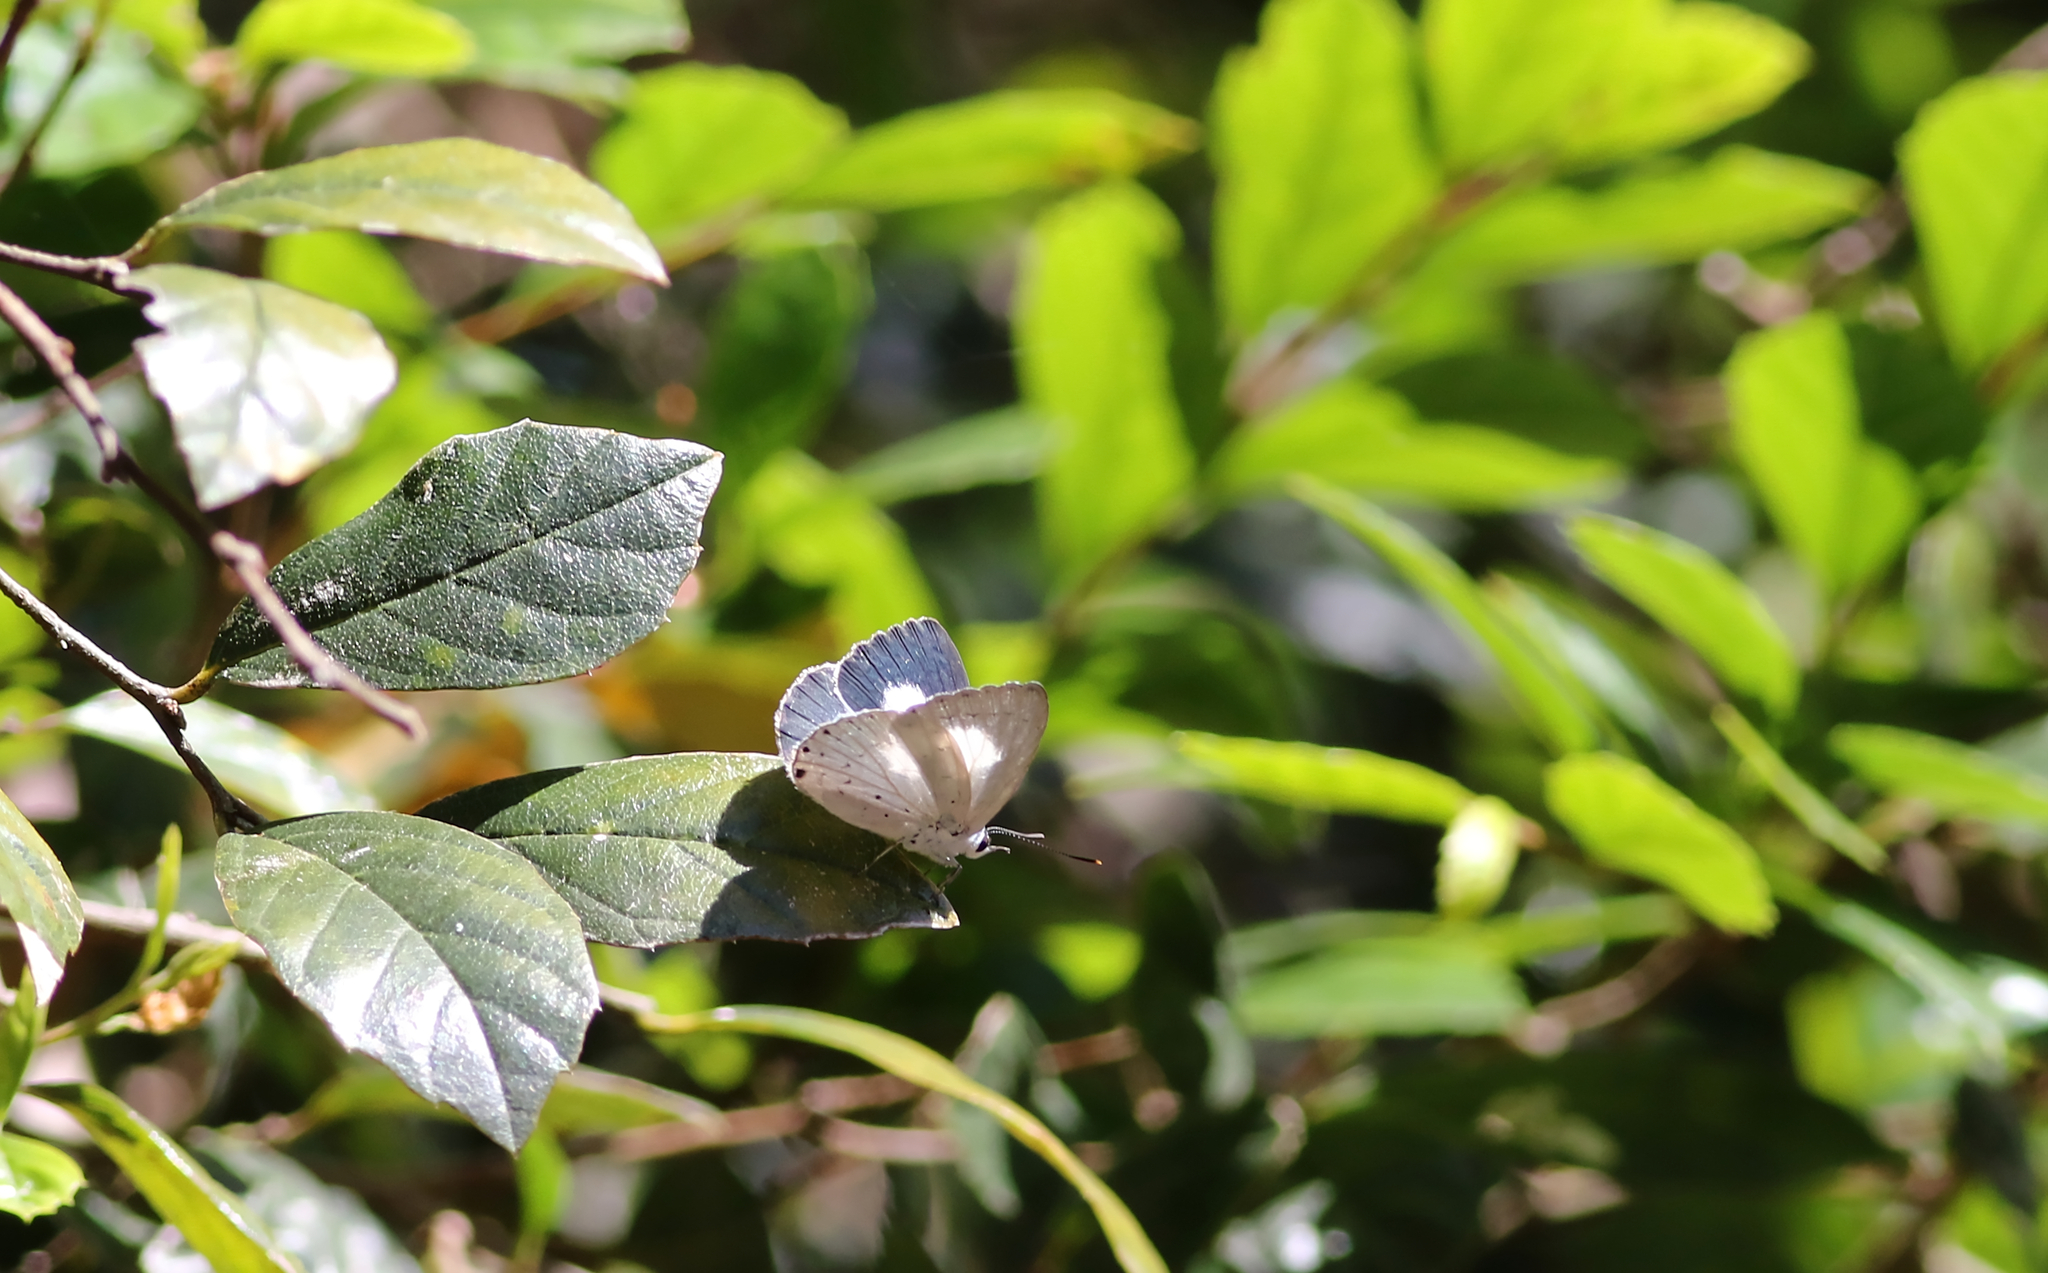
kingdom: Animalia
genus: Eirmocides
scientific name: Eirmocides
